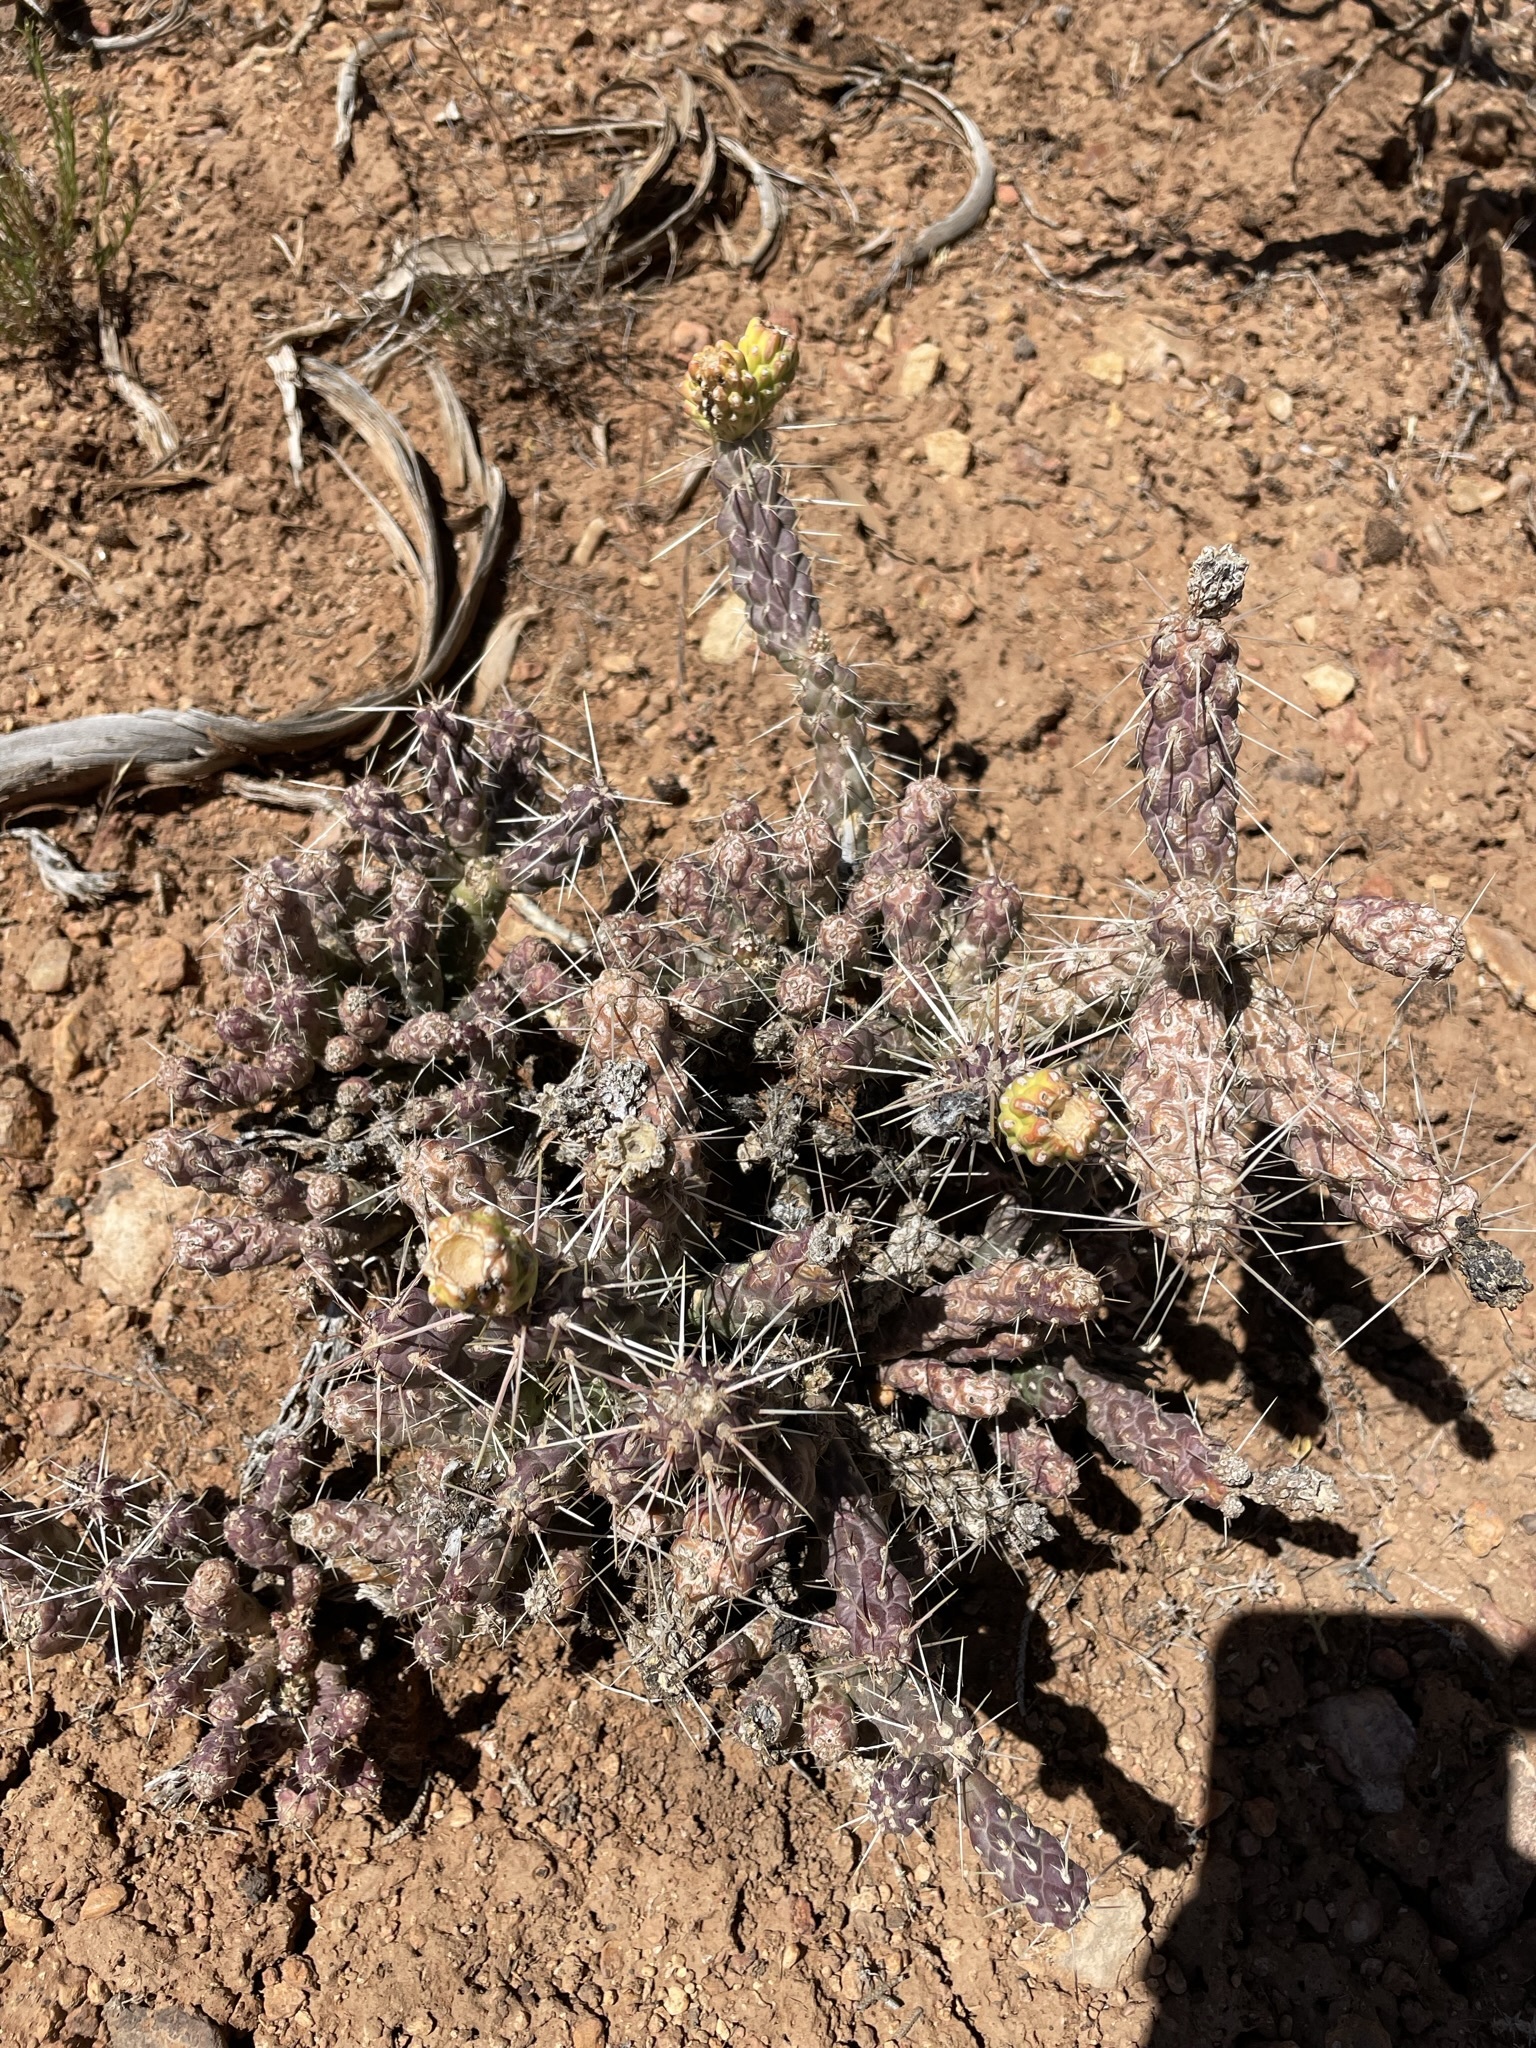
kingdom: Plantae
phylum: Tracheophyta
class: Magnoliopsida
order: Caryophyllales
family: Cactaceae
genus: Cylindropuntia
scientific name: Cylindropuntia whipplei
